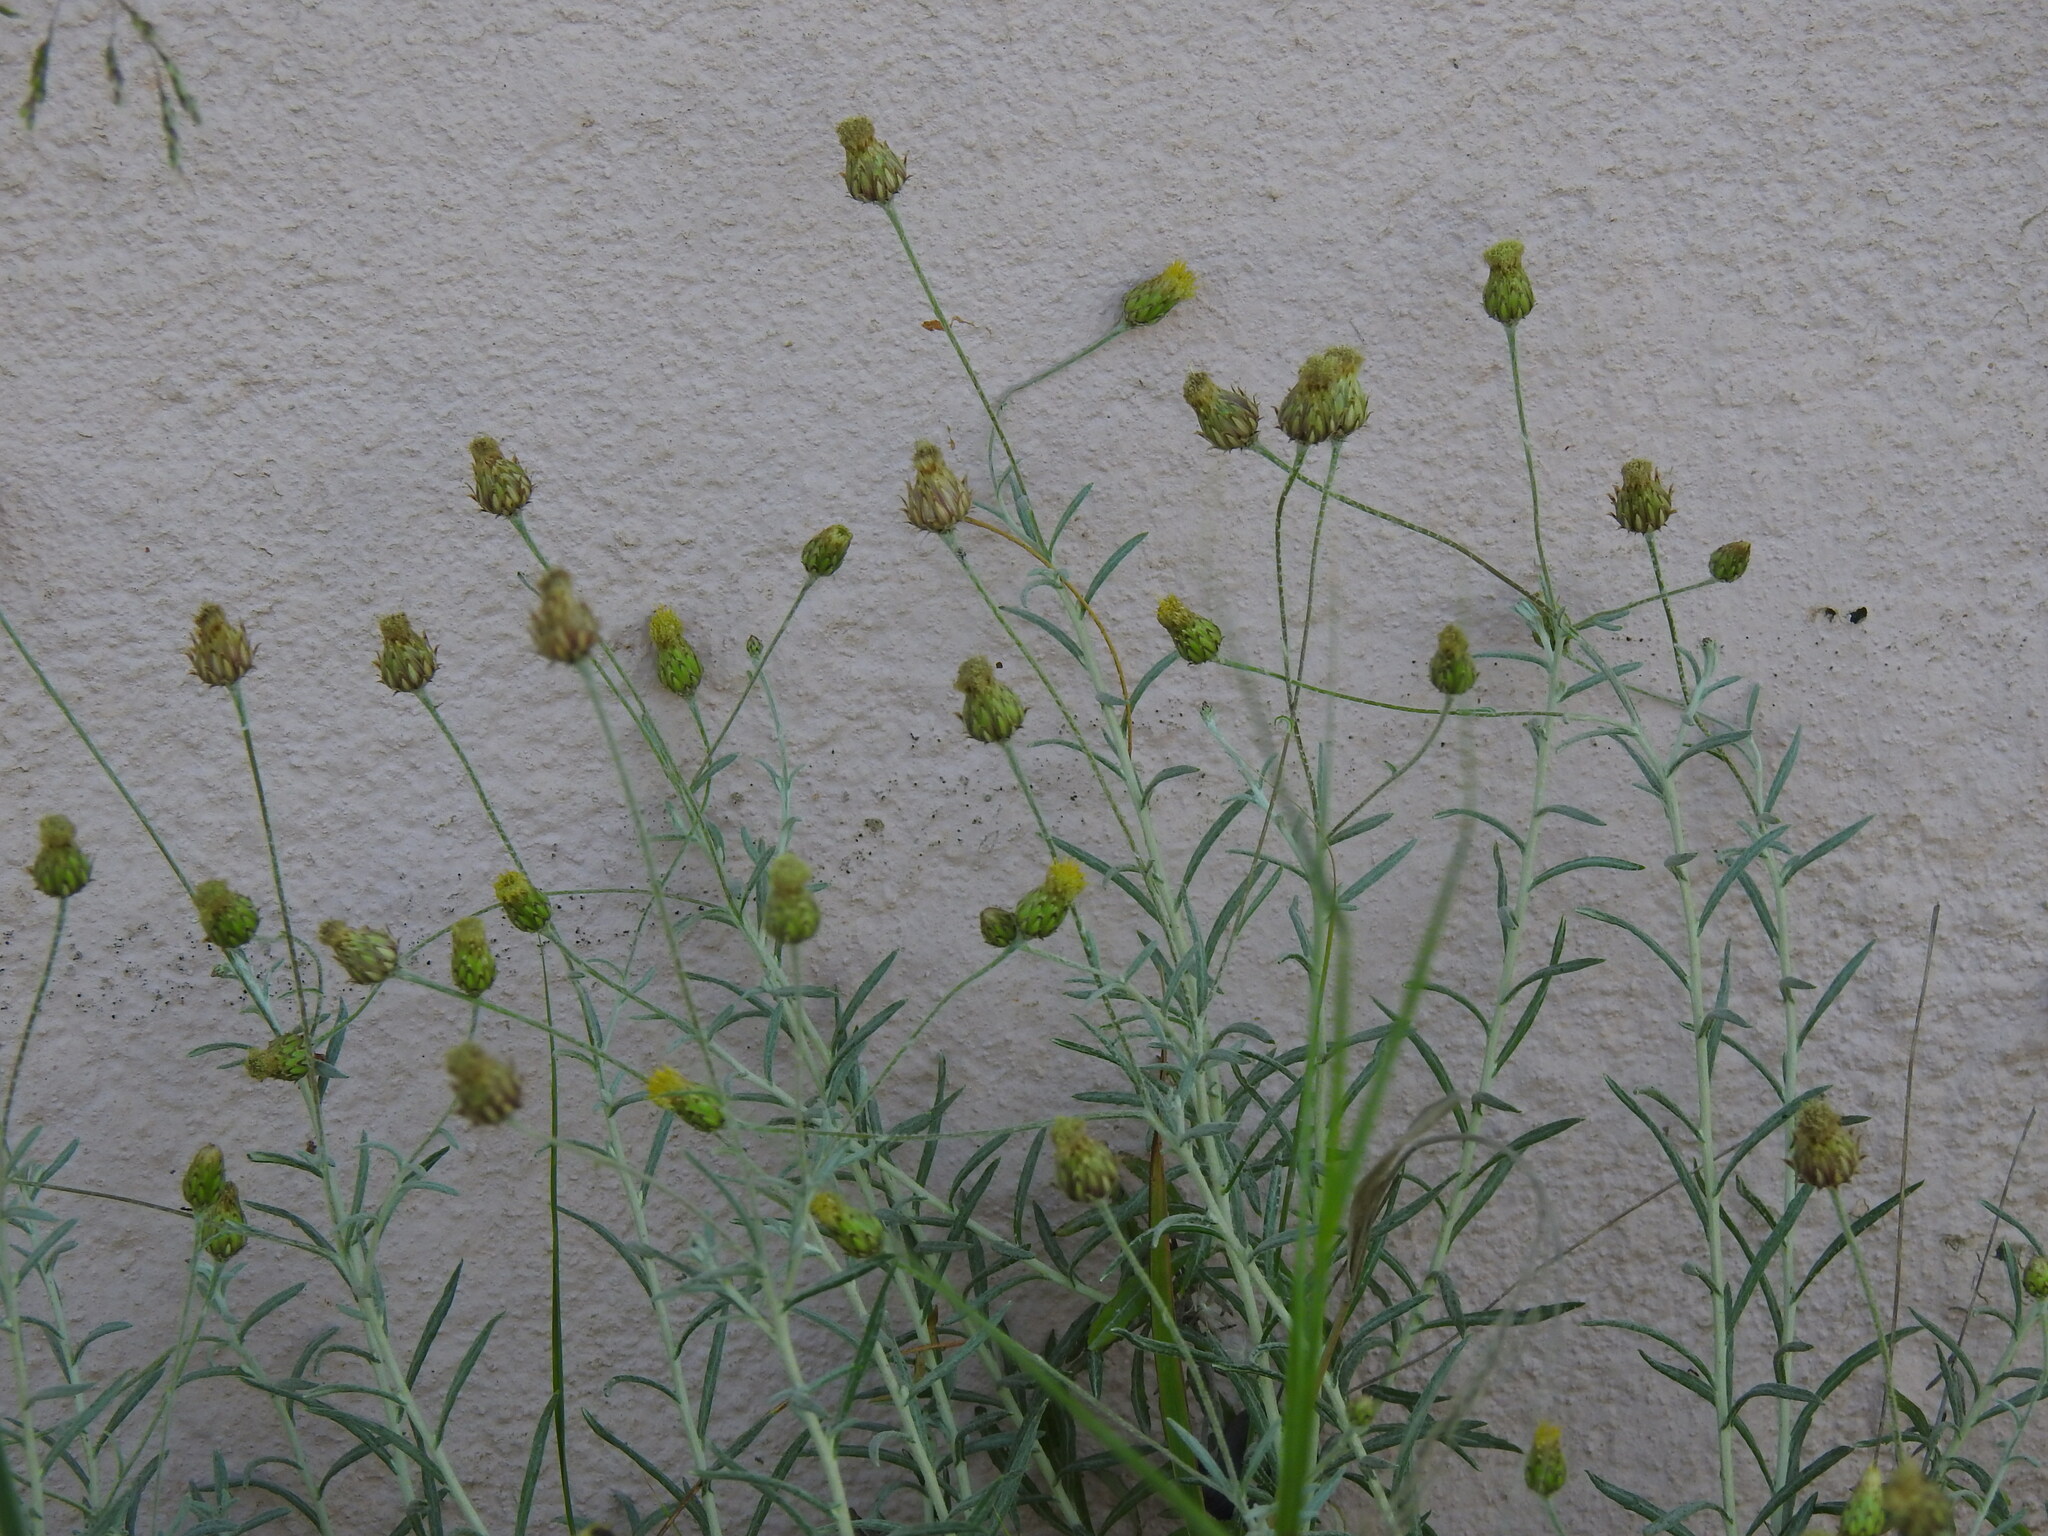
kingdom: Plantae
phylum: Tracheophyta
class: Magnoliopsida
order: Asterales
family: Asteraceae
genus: Phagnalon
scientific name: Phagnalon saxatile
